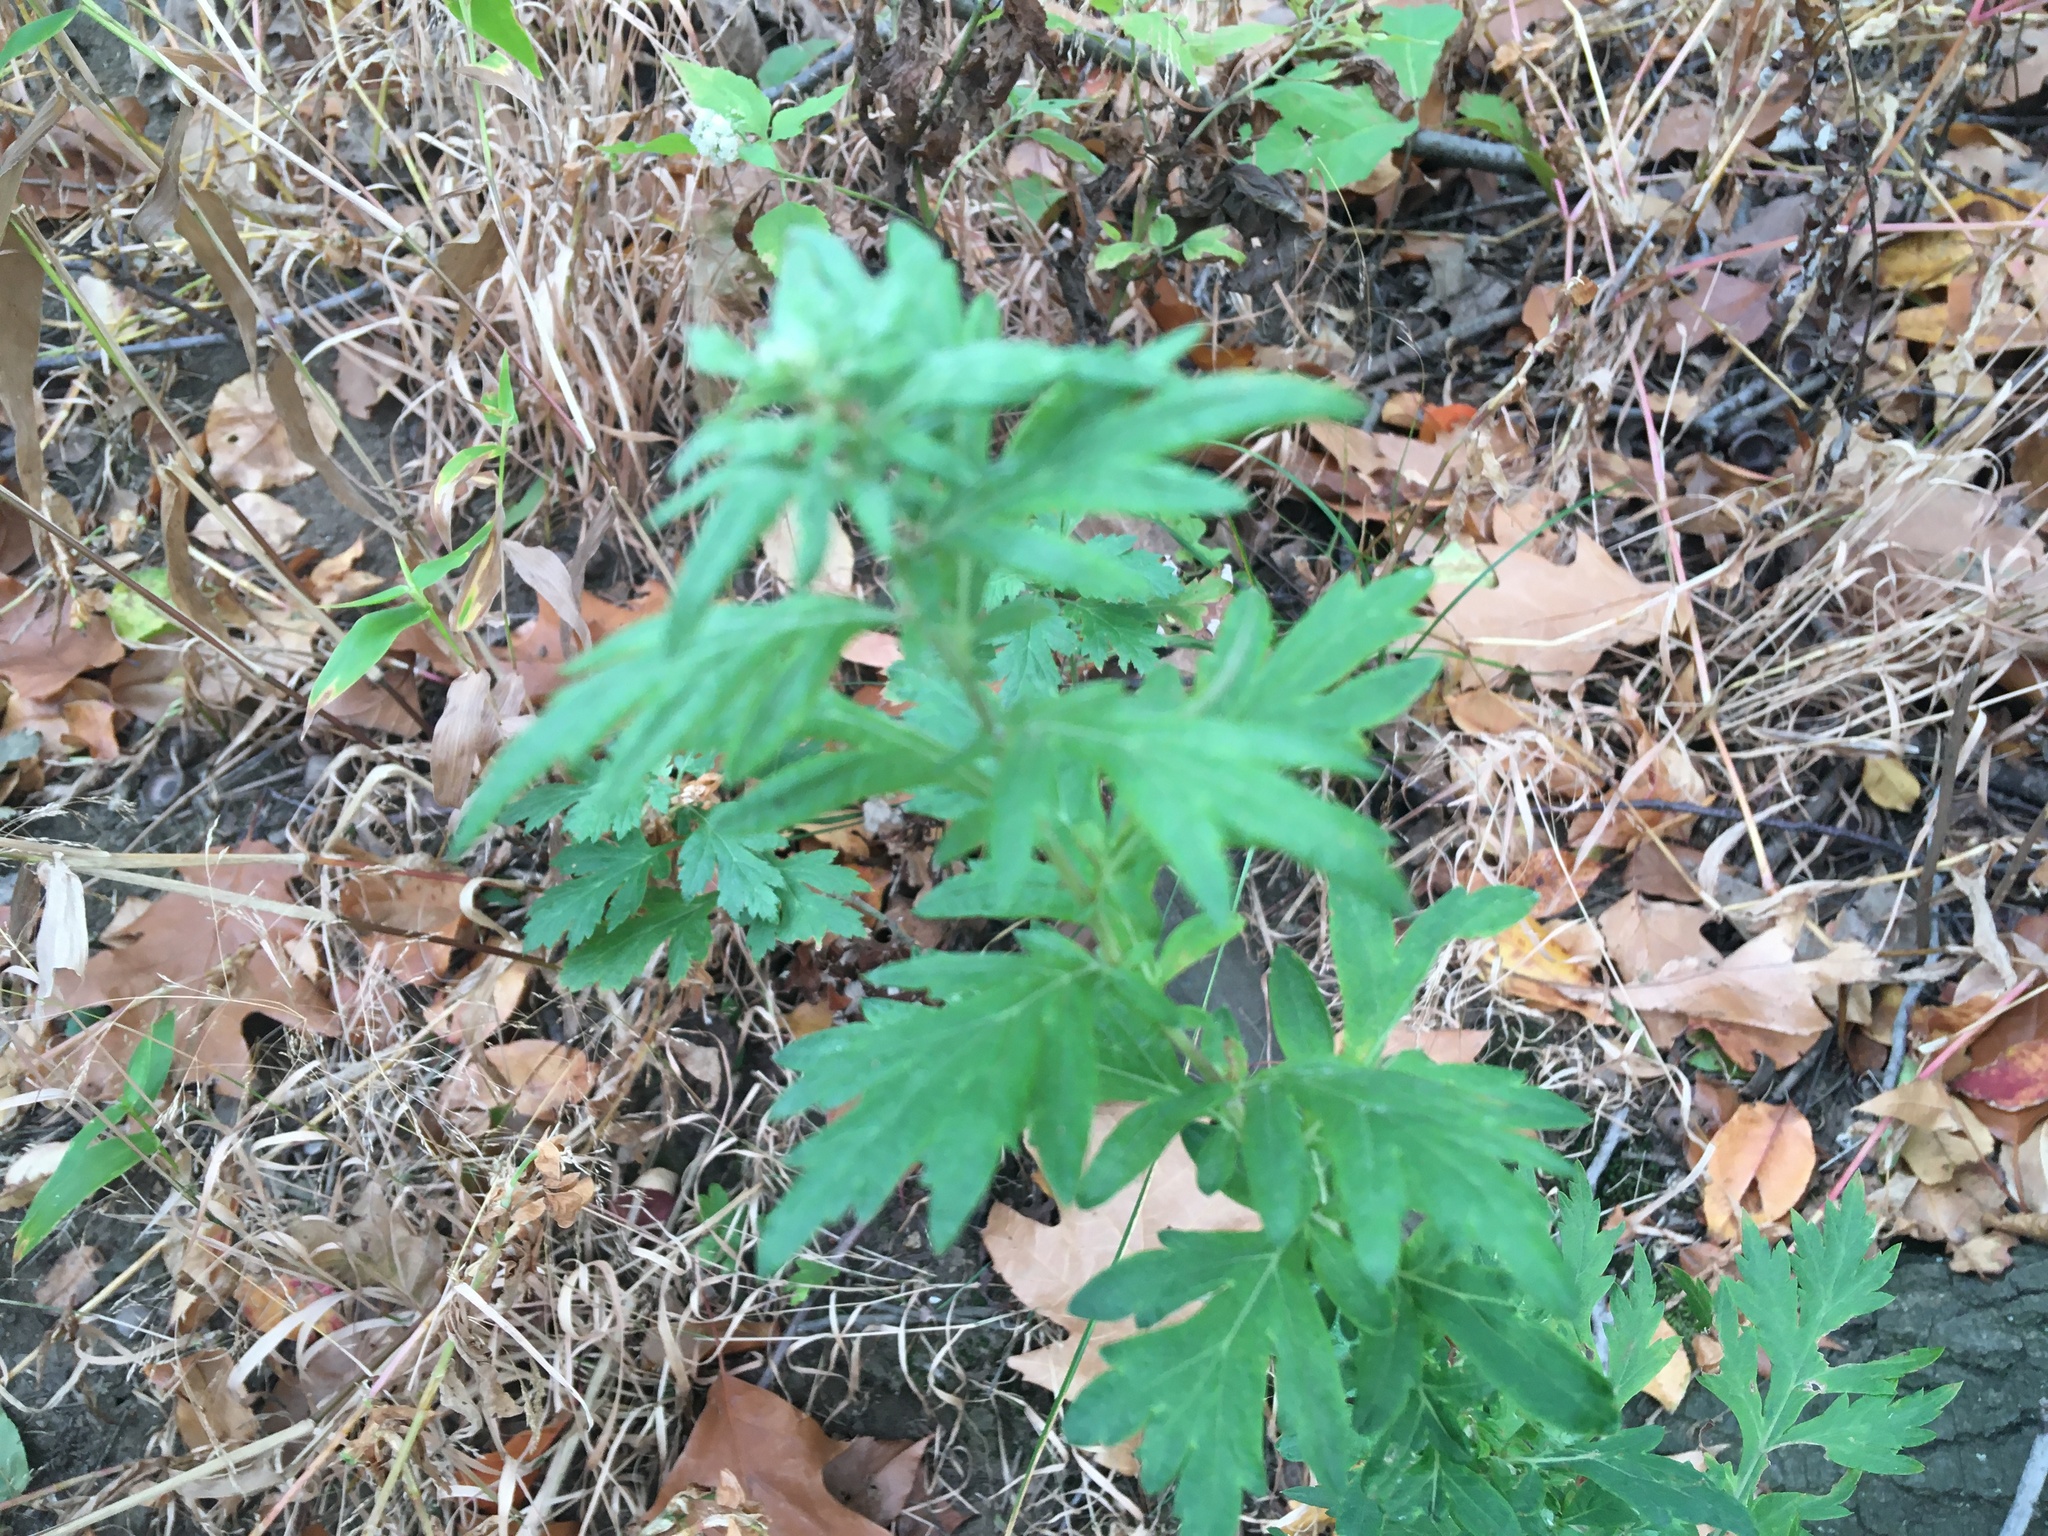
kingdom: Plantae
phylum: Tracheophyta
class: Magnoliopsida
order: Asterales
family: Asteraceae
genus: Artemisia
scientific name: Artemisia vulgaris
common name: Mugwort
